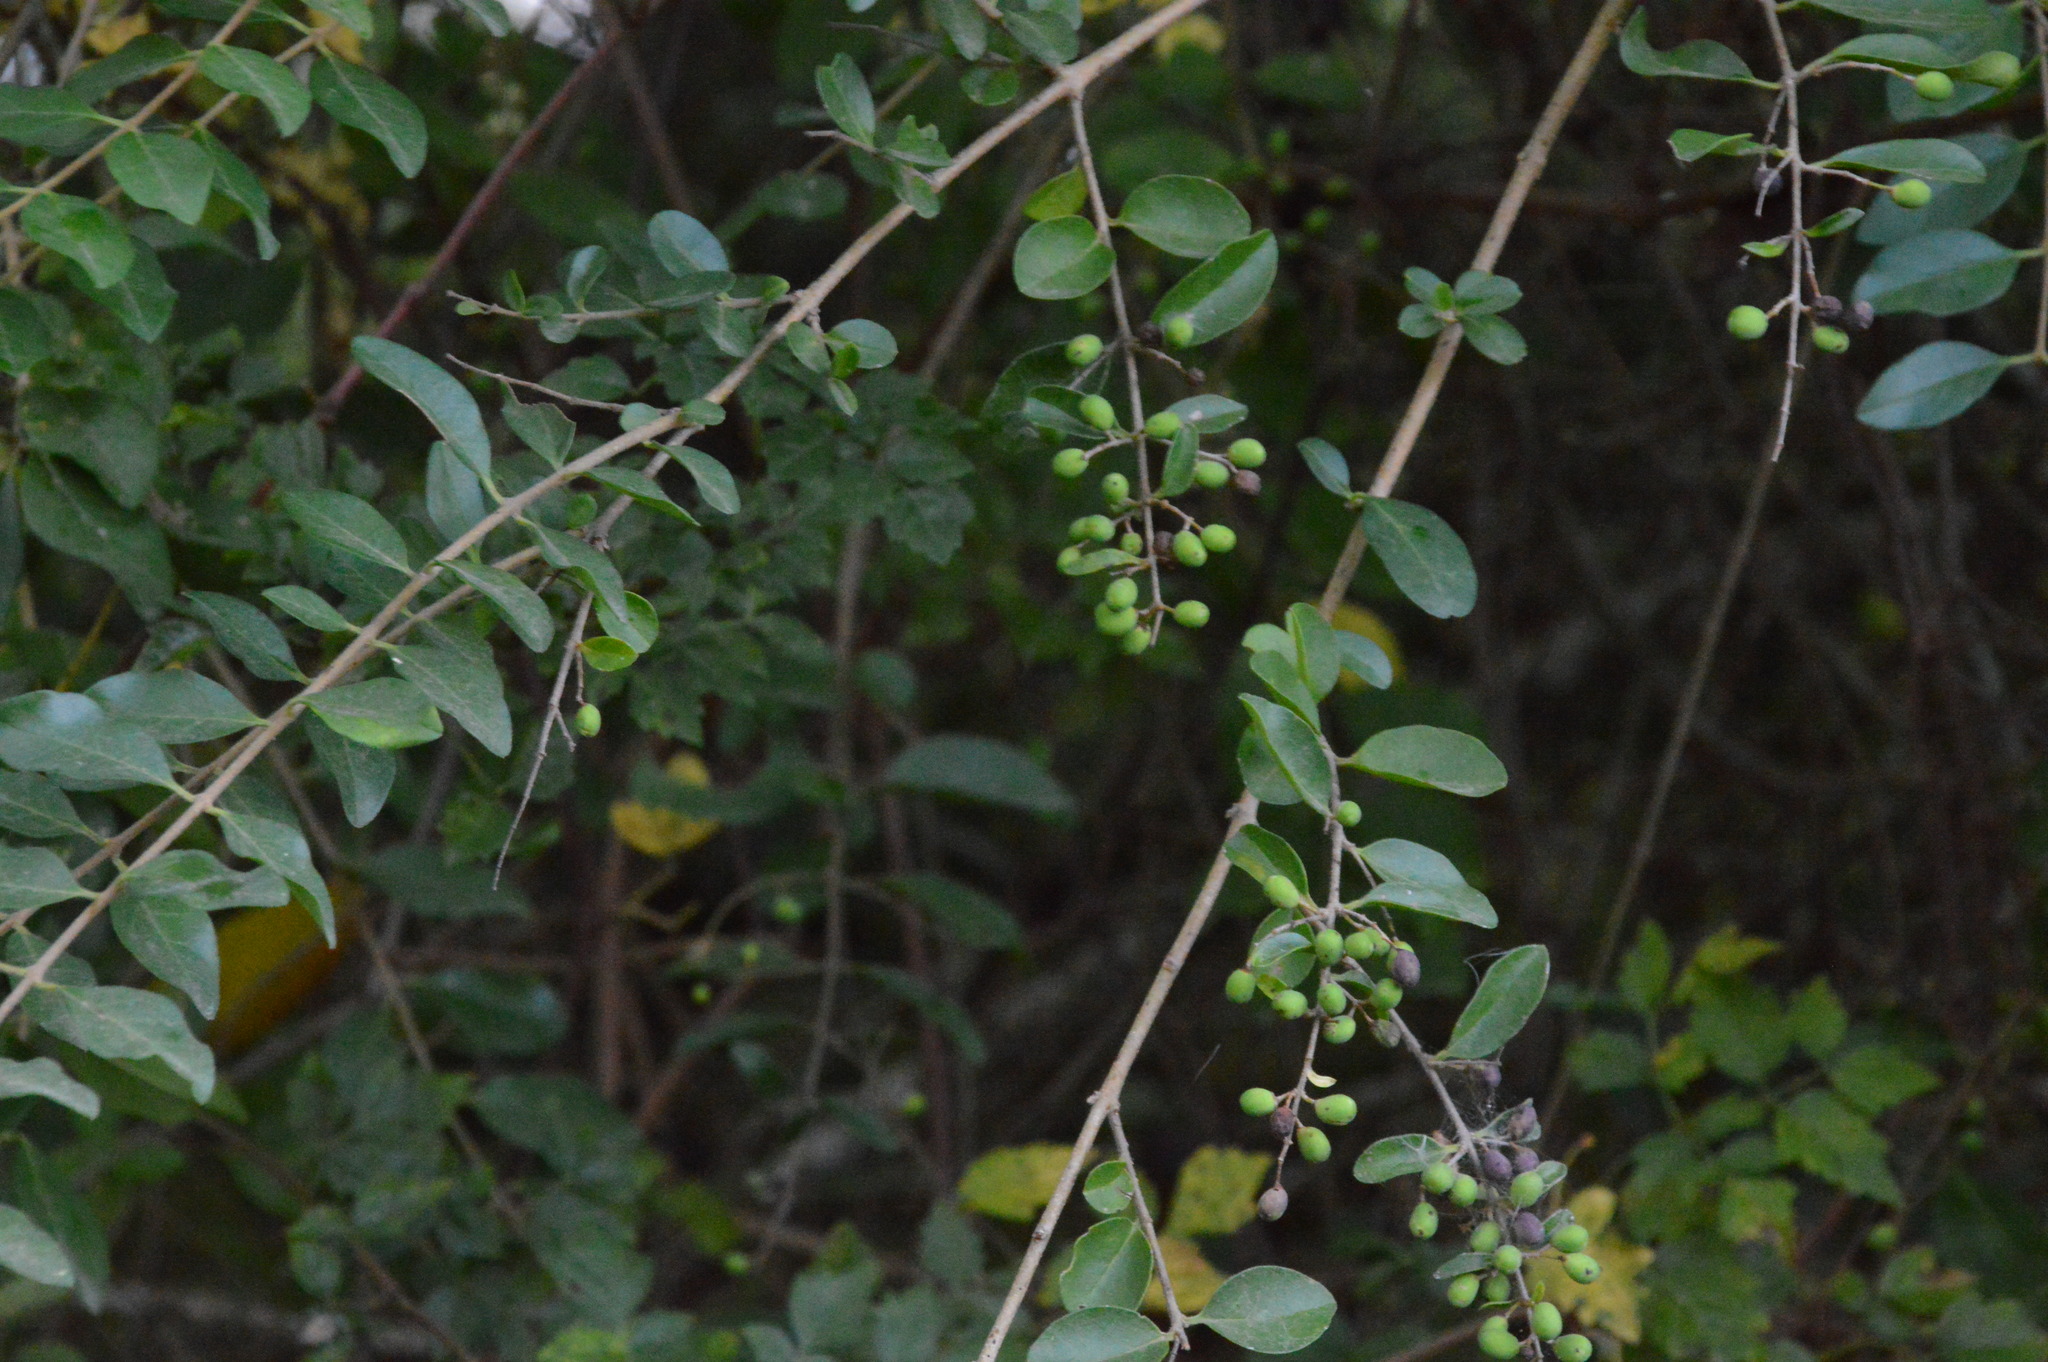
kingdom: Plantae
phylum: Tracheophyta
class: Magnoliopsida
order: Lamiales
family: Oleaceae
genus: Ligustrum
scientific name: Ligustrum sinense
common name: Chinese privet
